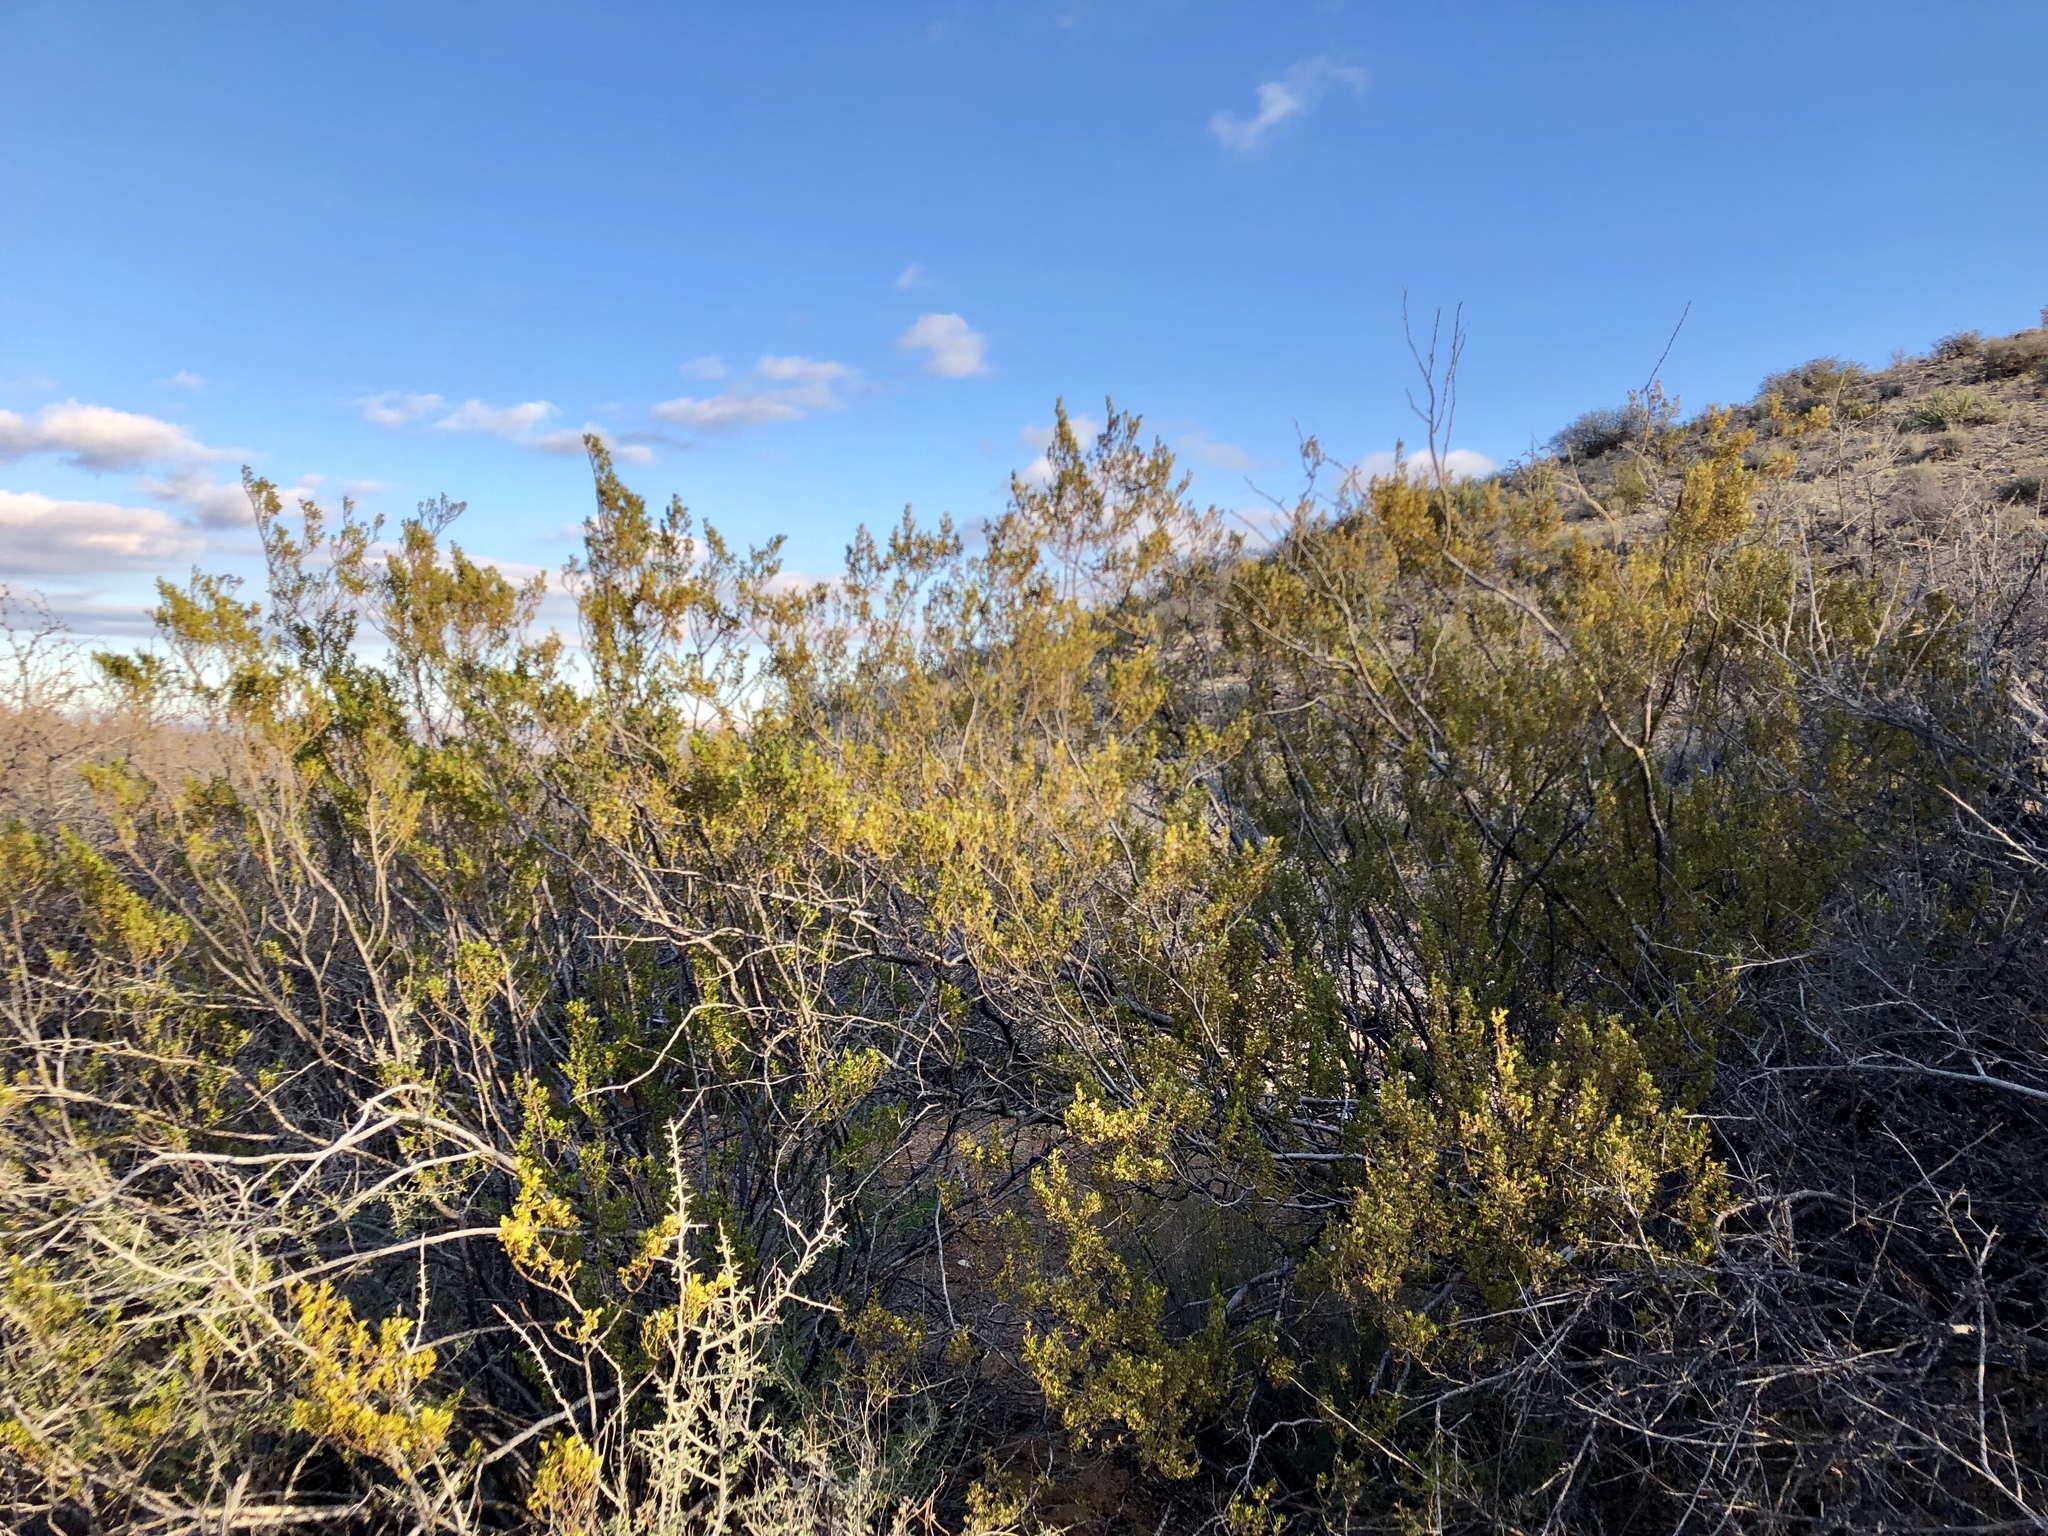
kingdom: Plantae
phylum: Tracheophyta
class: Magnoliopsida
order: Zygophyllales
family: Zygophyllaceae
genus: Larrea
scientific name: Larrea tridentata
